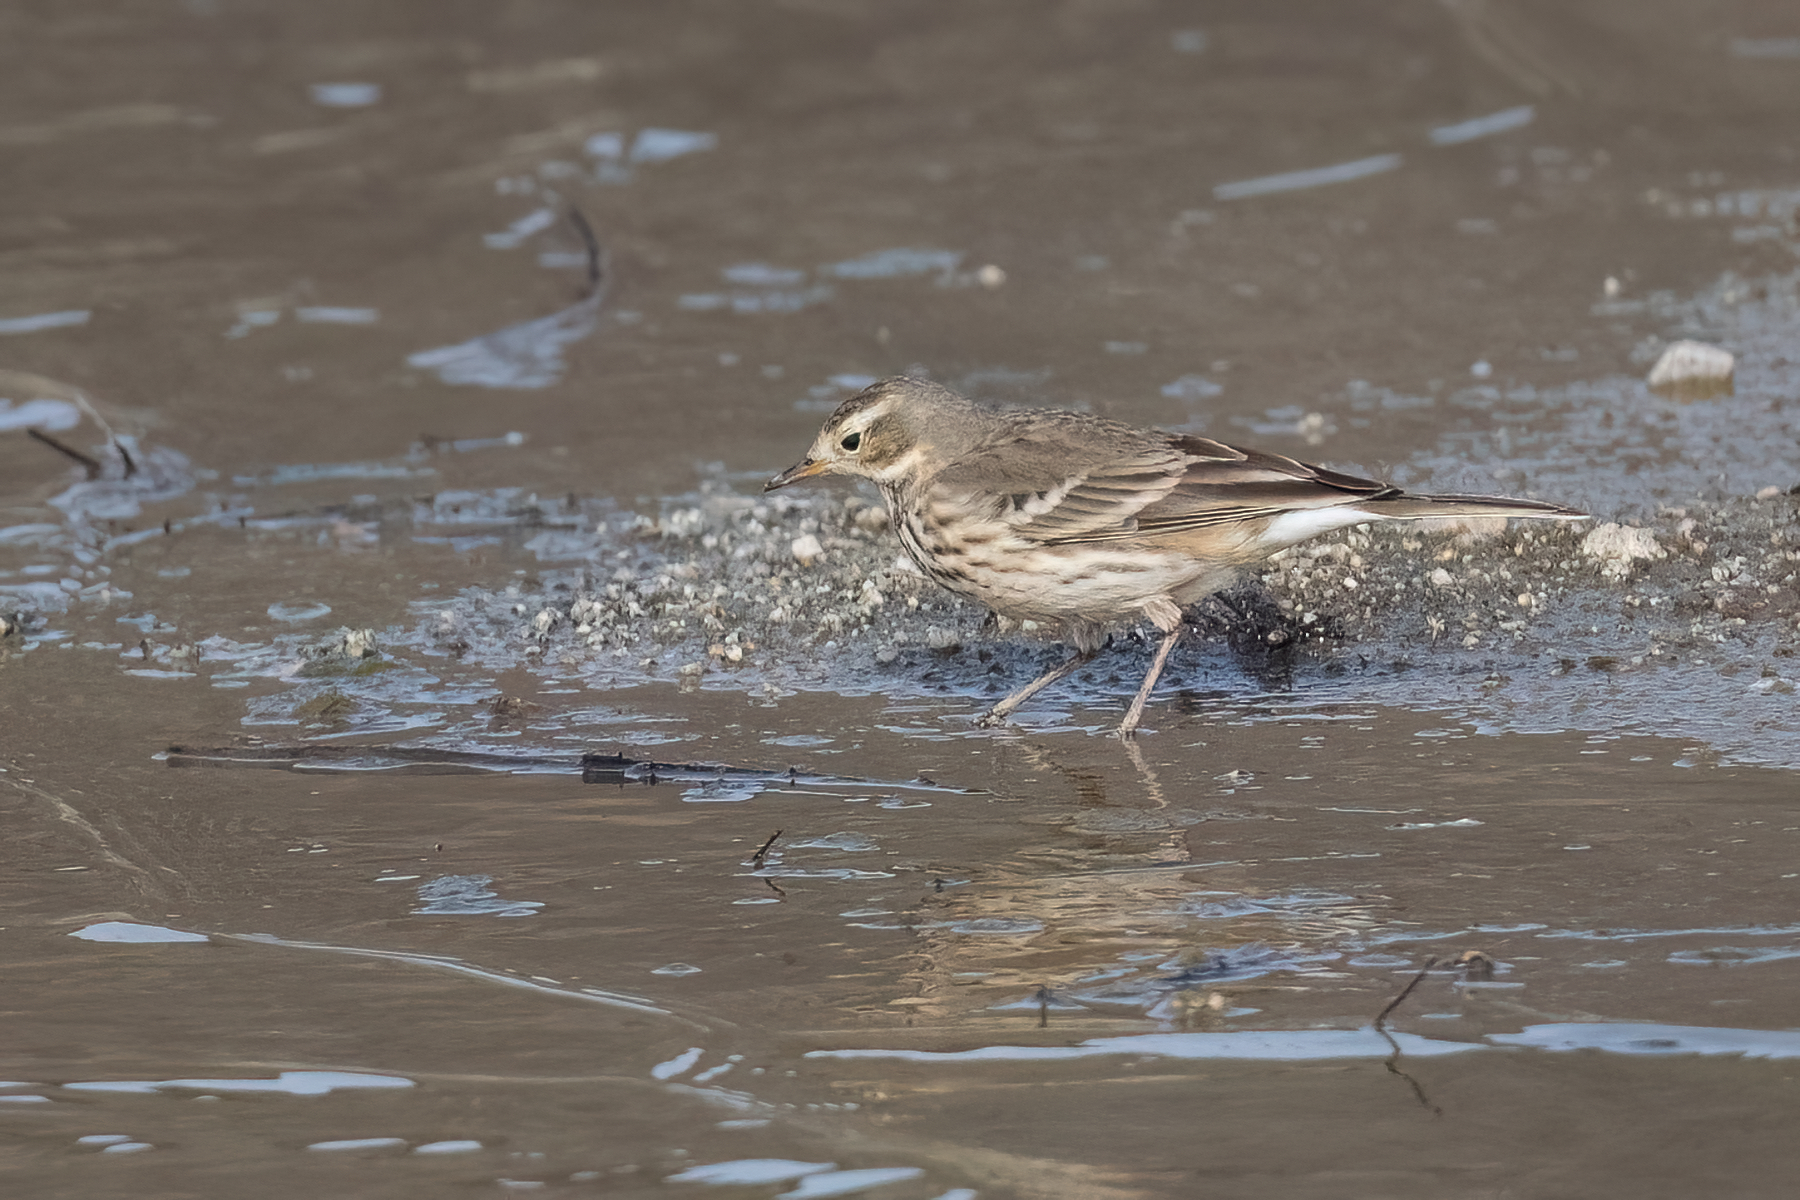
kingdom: Animalia
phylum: Chordata
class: Aves
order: Passeriformes
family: Motacillidae
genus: Anthus
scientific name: Anthus rubescens
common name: Buff-bellied pipit
